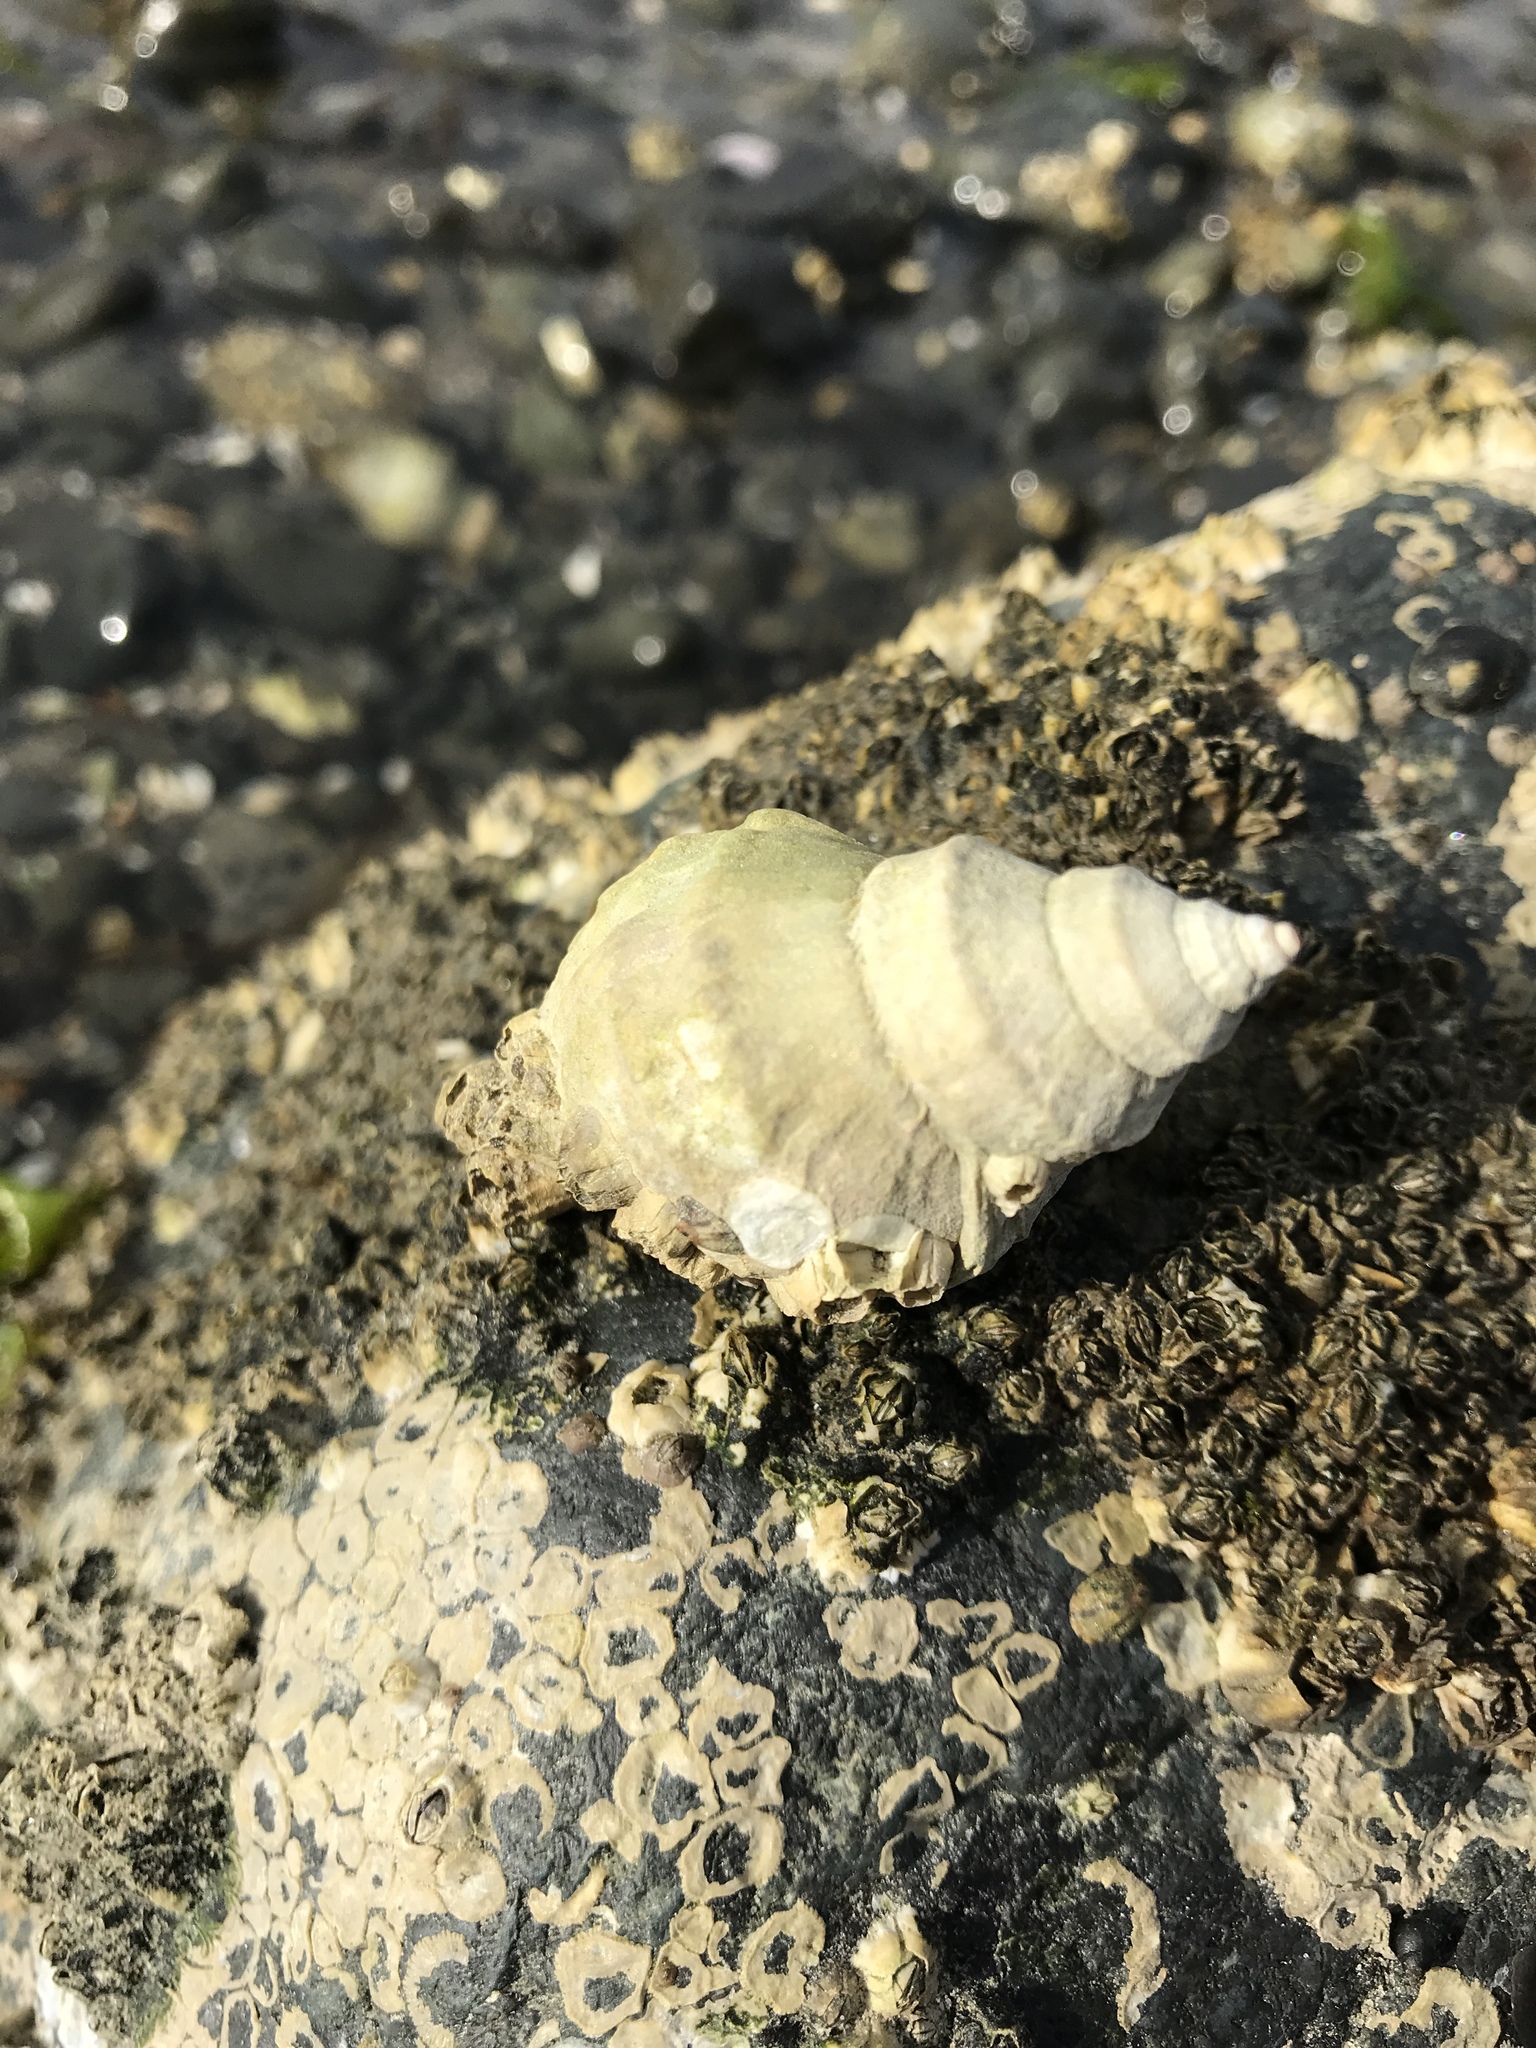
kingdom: Animalia
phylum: Mollusca
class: Gastropoda
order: Neogastropoda
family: Muricidae
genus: Nucella
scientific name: Nucella lamellosa
